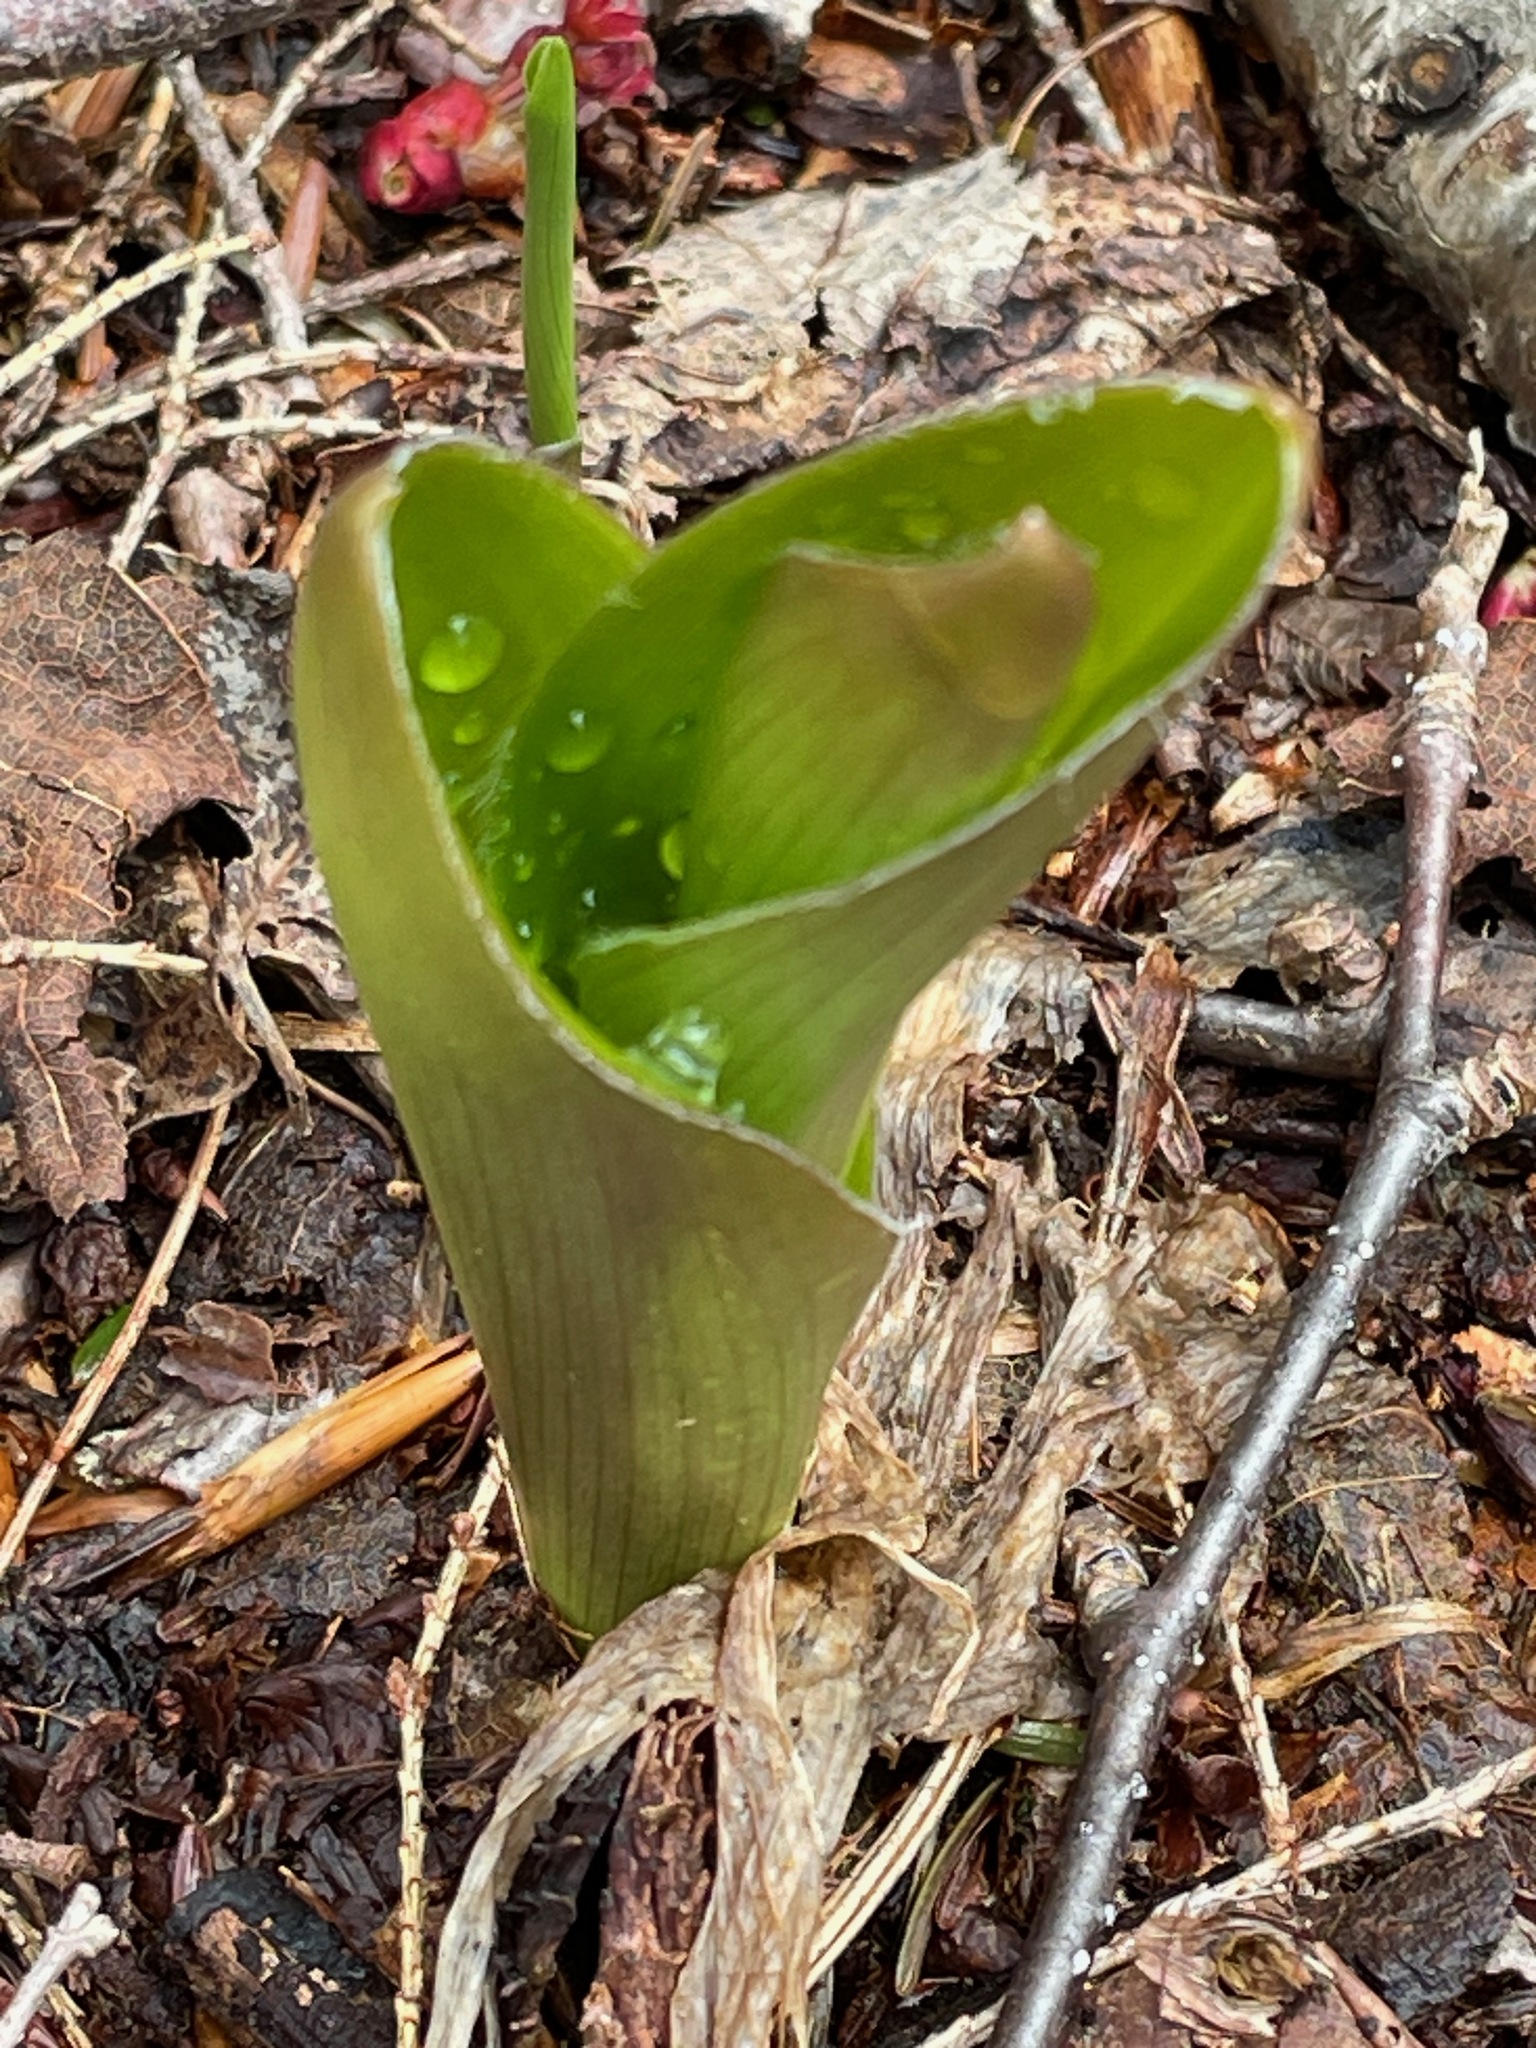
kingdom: Plantae
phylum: Tracheophyta
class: Liliopsida
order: Liliales
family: Liliaceae
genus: Clintonia
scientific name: Clintonia borealis
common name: Yellow clintonia
